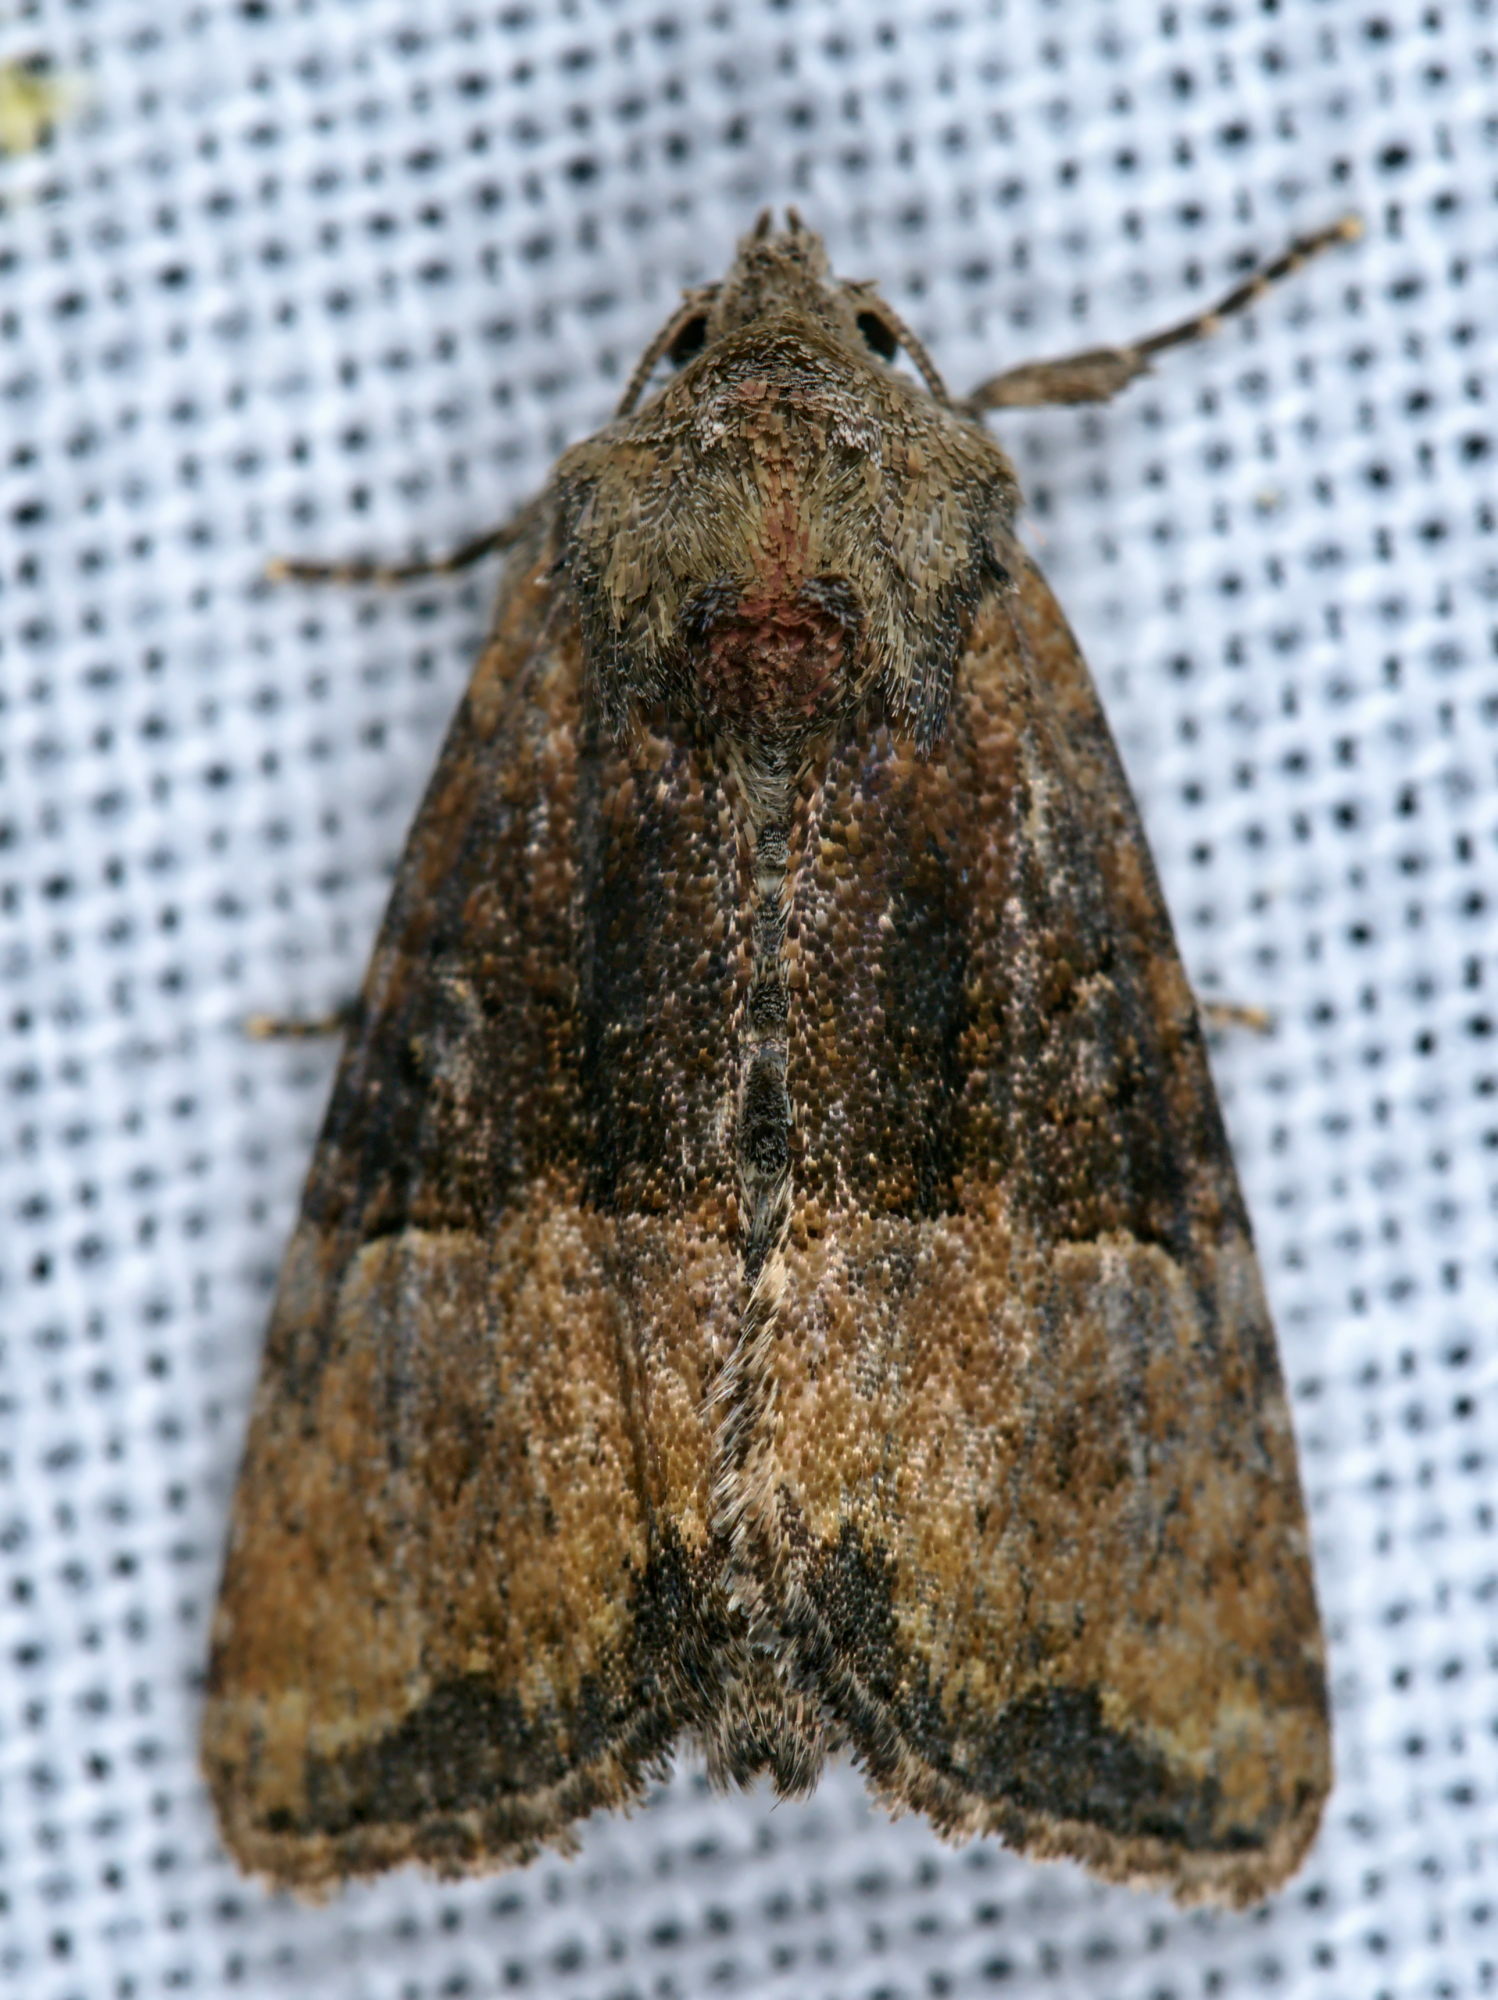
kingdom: Animalia
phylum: Arthropoda
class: Insecta
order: Lepidoptera
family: Noctuidae
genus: Mesoligia
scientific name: Mesoligia furuncula
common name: Cloaked minor
